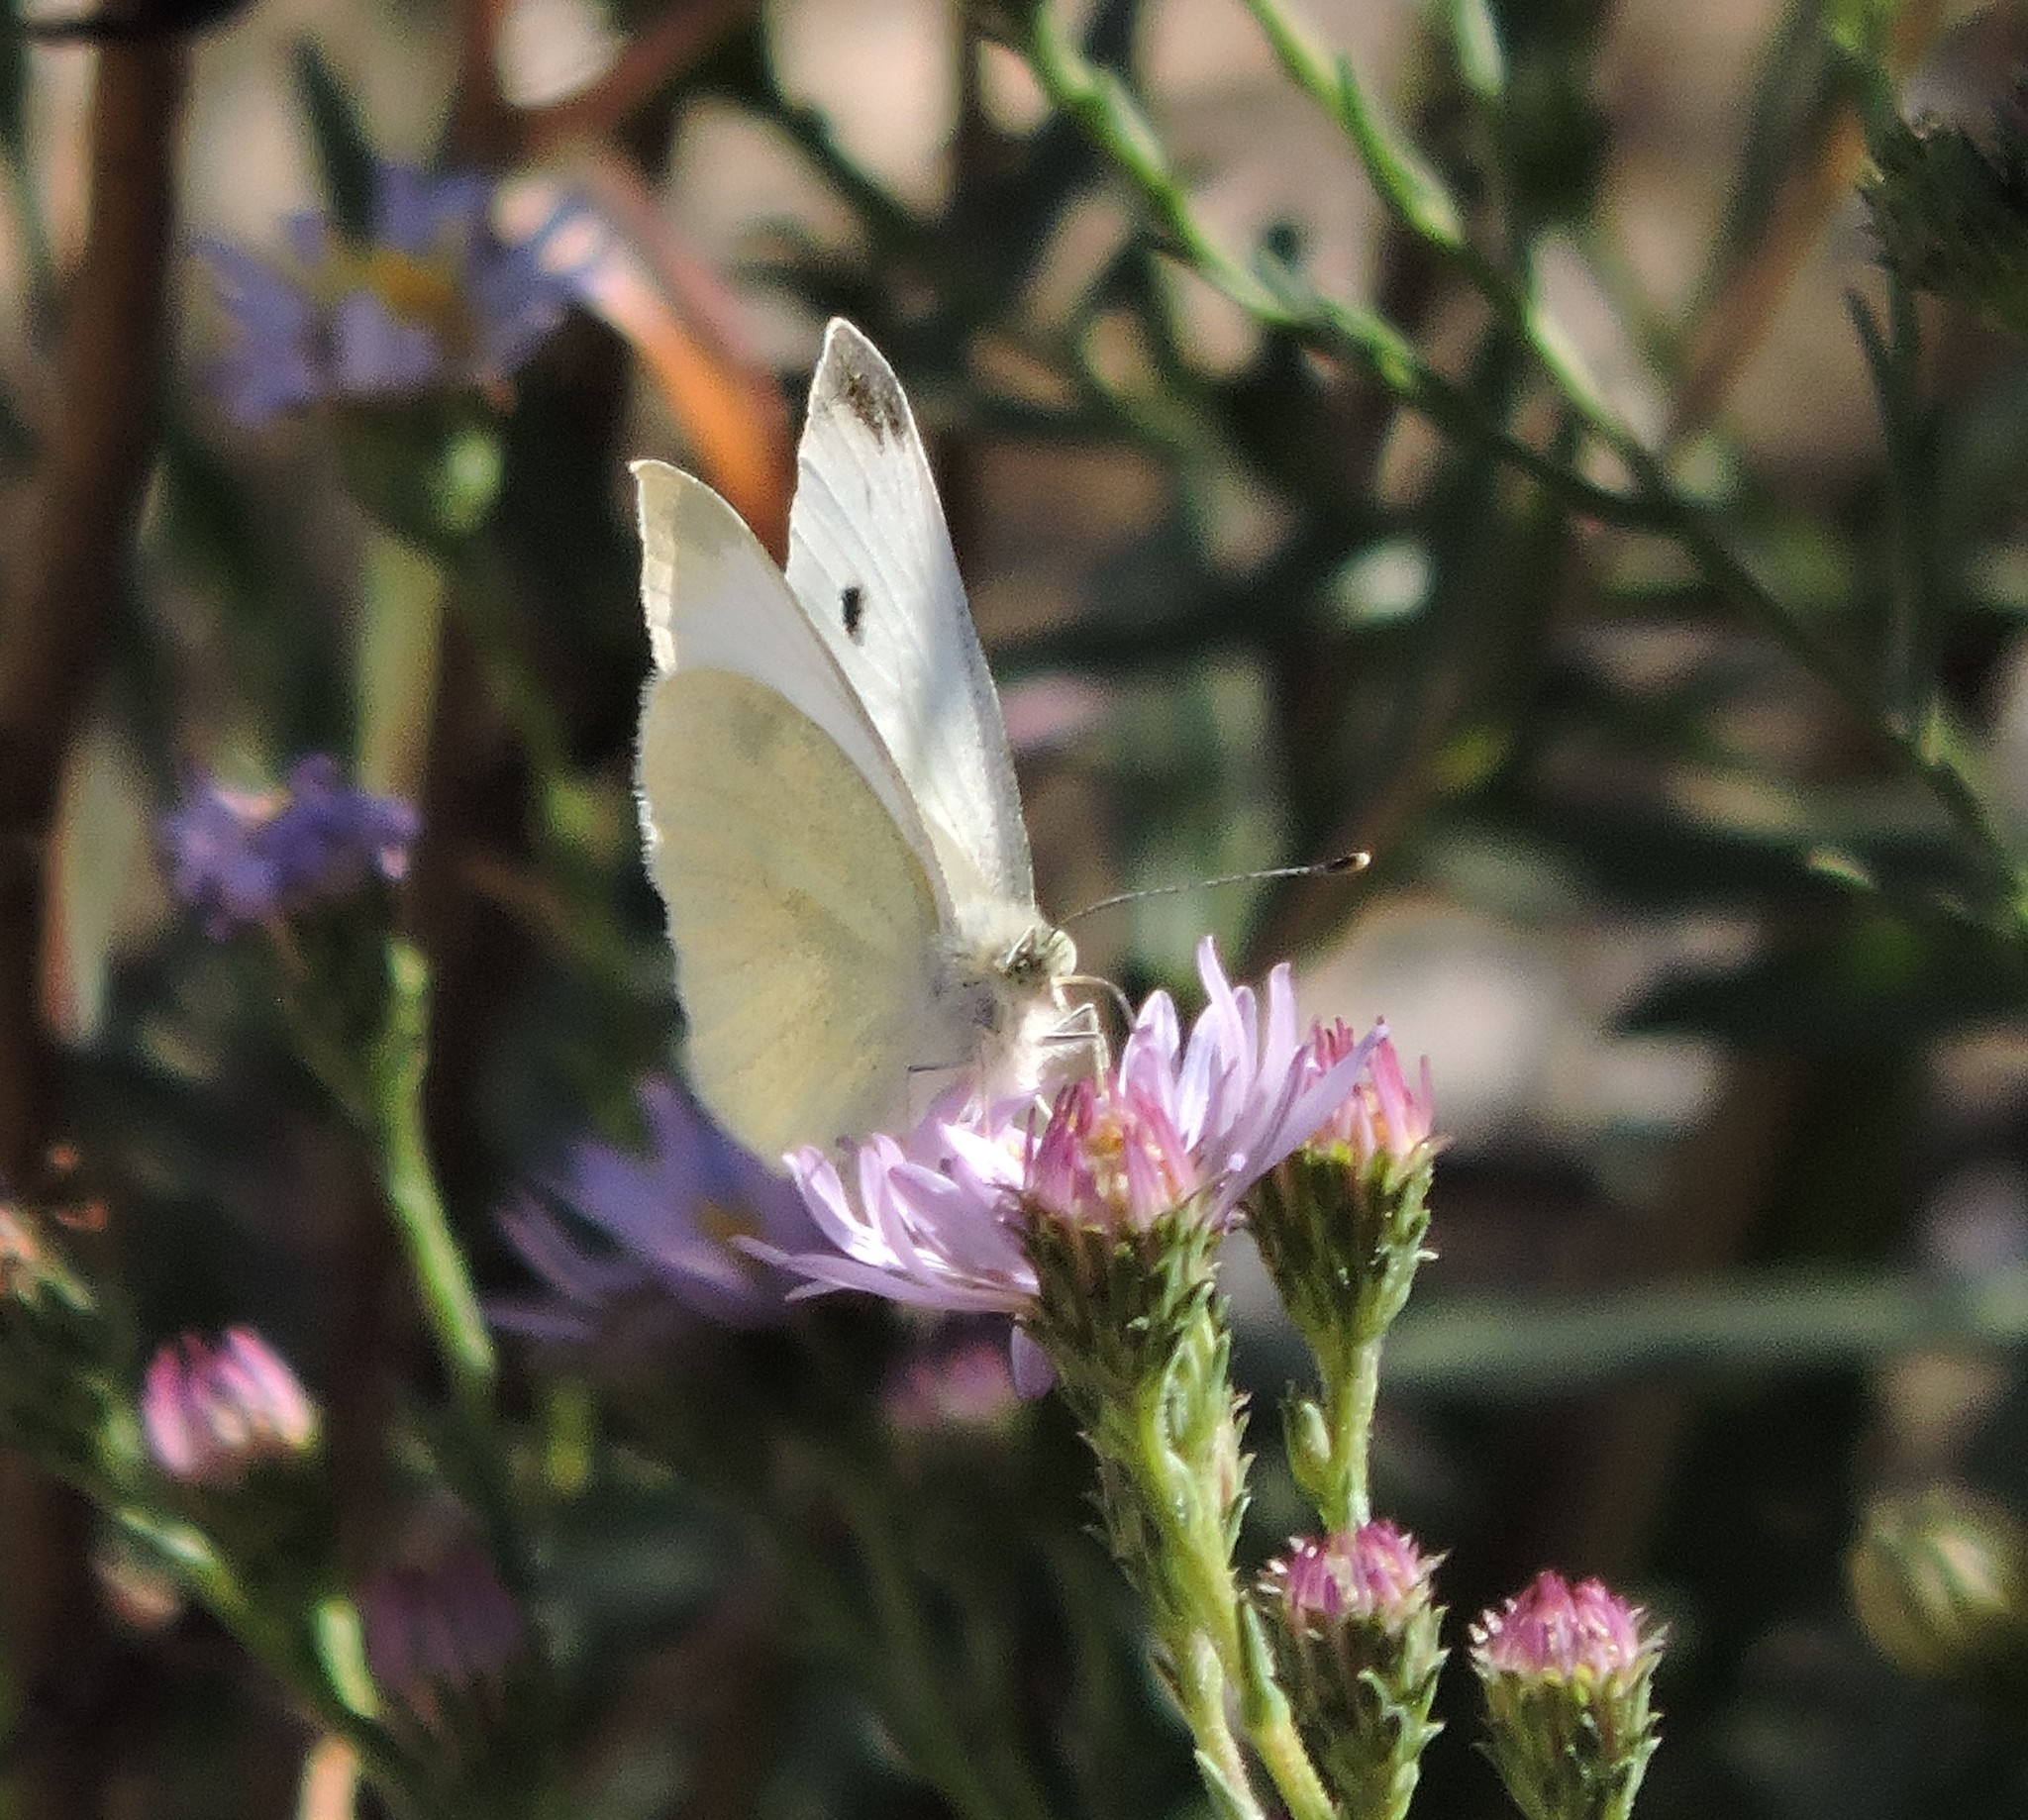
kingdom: Animalia
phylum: Arthropoda
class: Insecta
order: Lepidoptera
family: Pieridae
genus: Pieris
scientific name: Pieris rapae
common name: Small white
